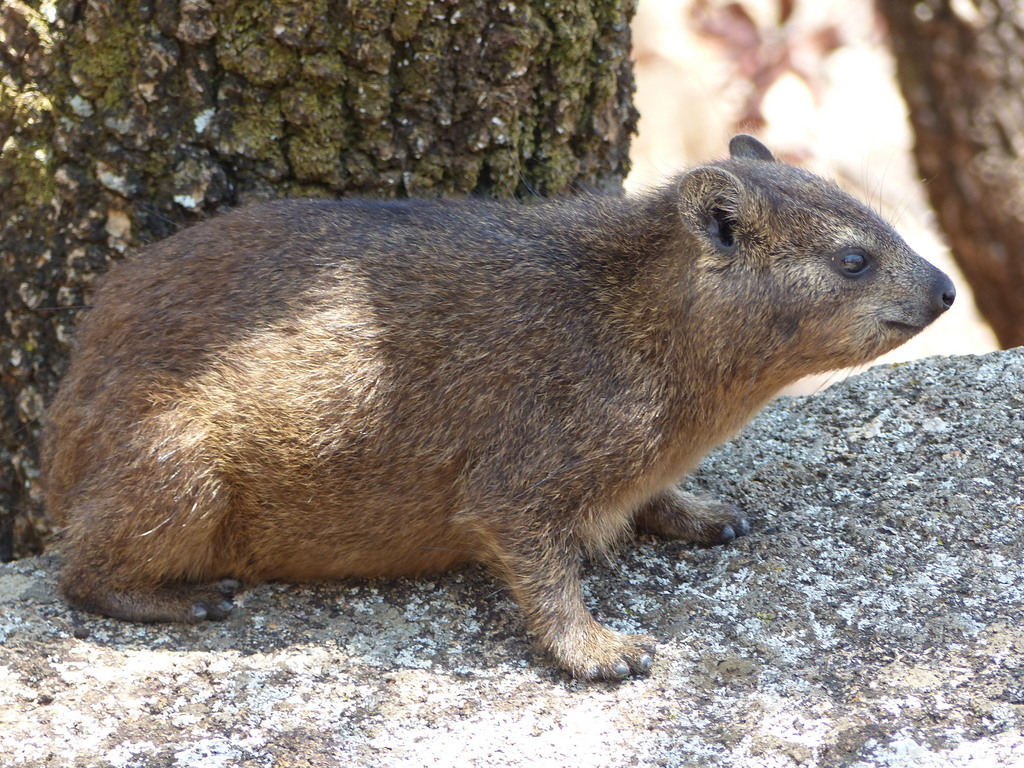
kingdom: Animalia
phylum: Chordata
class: Mammalia
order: Hyracoidea
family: Procaviidae
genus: Procavia
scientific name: Procavia capensis
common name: Rock hyrax
